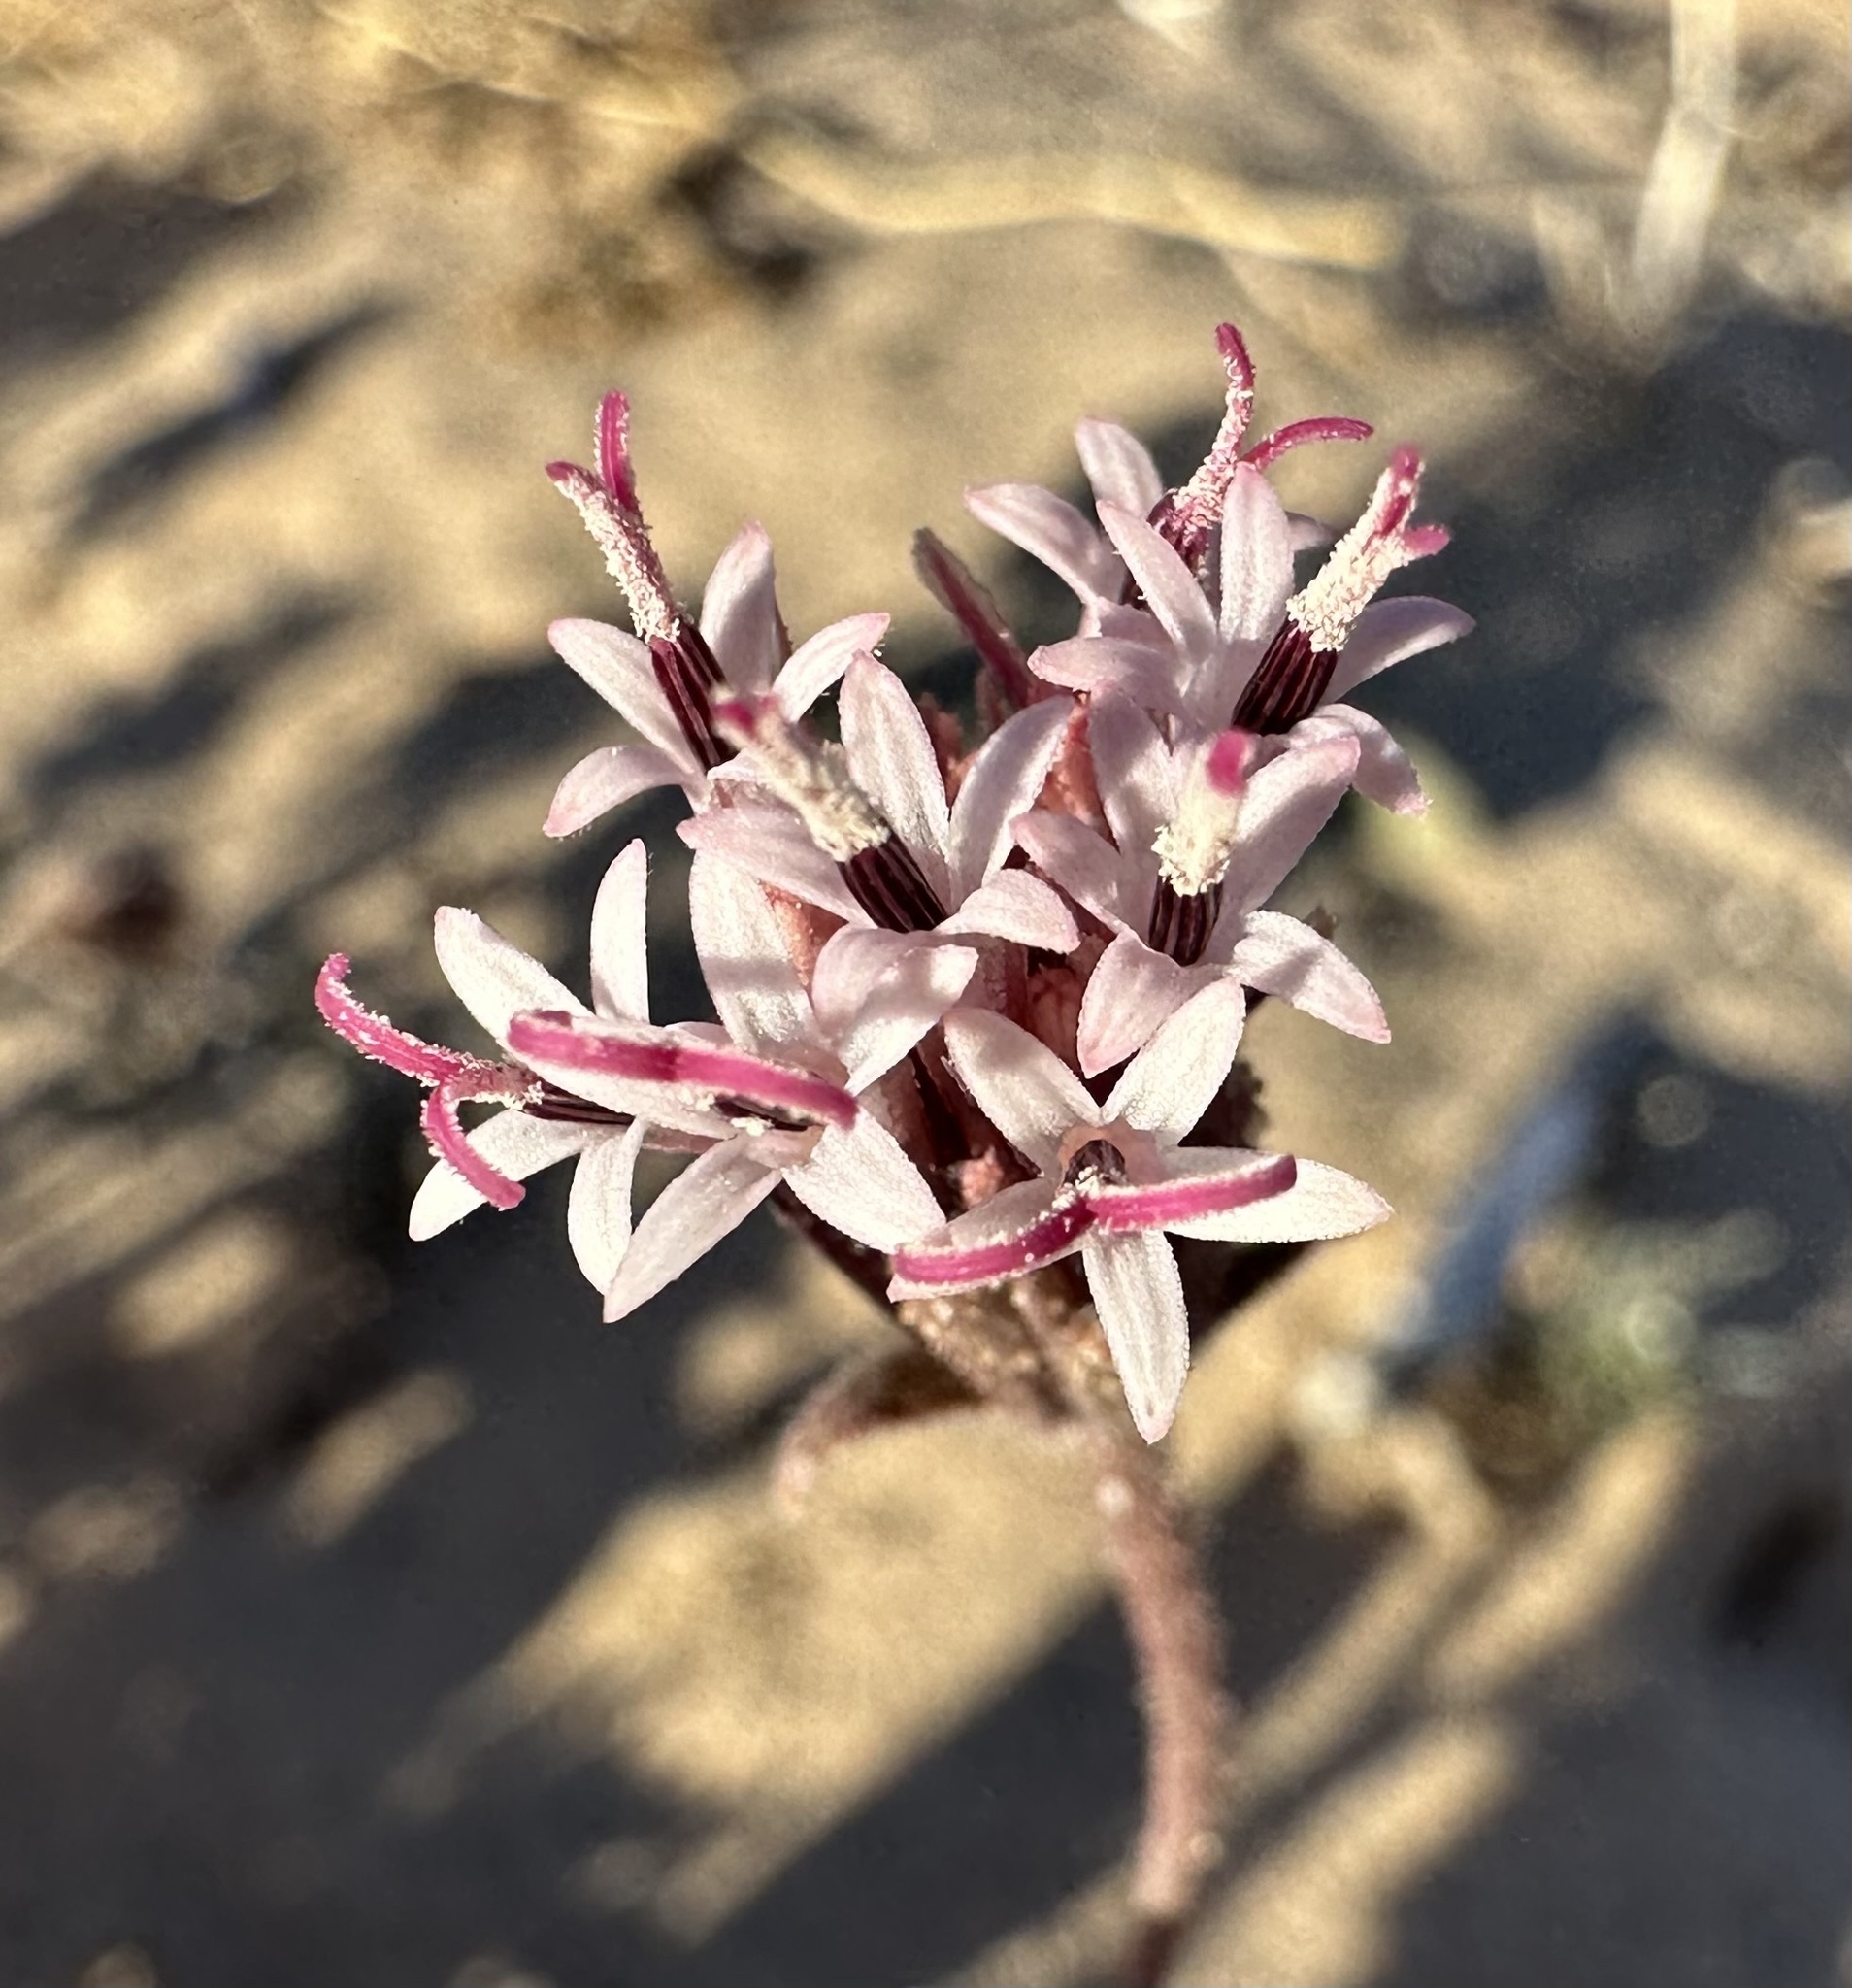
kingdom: Plantae
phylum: Tracheophyta
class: Magnoliopsida
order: Asterales
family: Asteraceae
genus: Palafoxia
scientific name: Palafoxia arida
